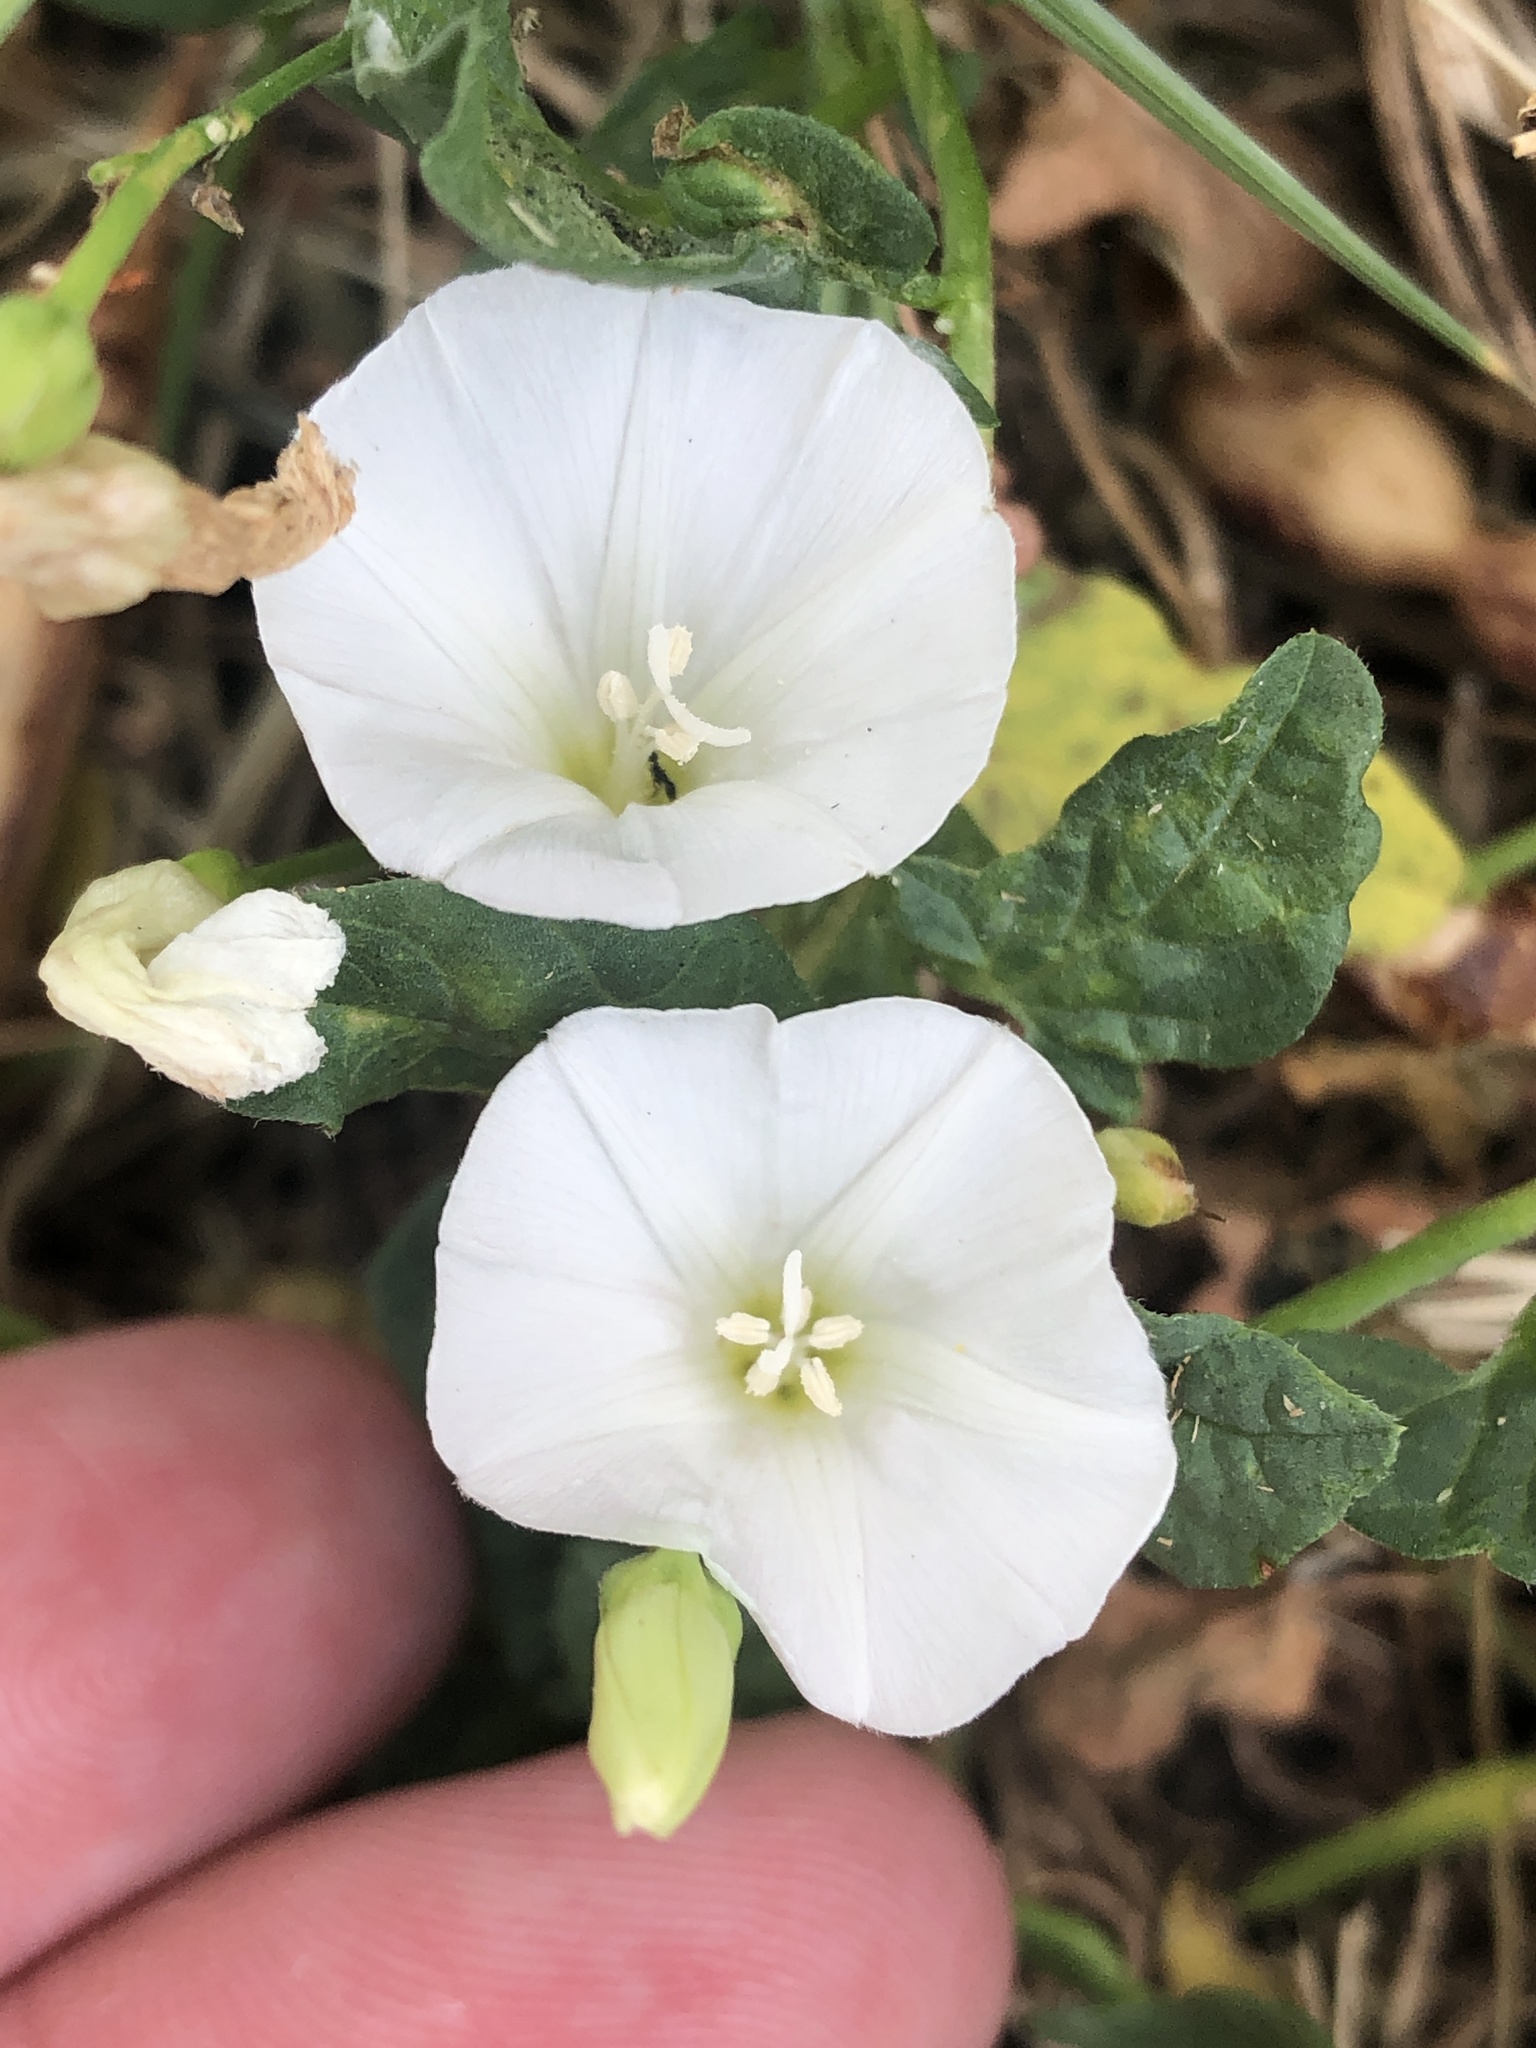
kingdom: Plantae
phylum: Tracheophyta
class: Magnoliopsida
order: Solanales
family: Convolvulaceae
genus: Convolvulus
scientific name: Convolvulus arvensis
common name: Field bindweed
